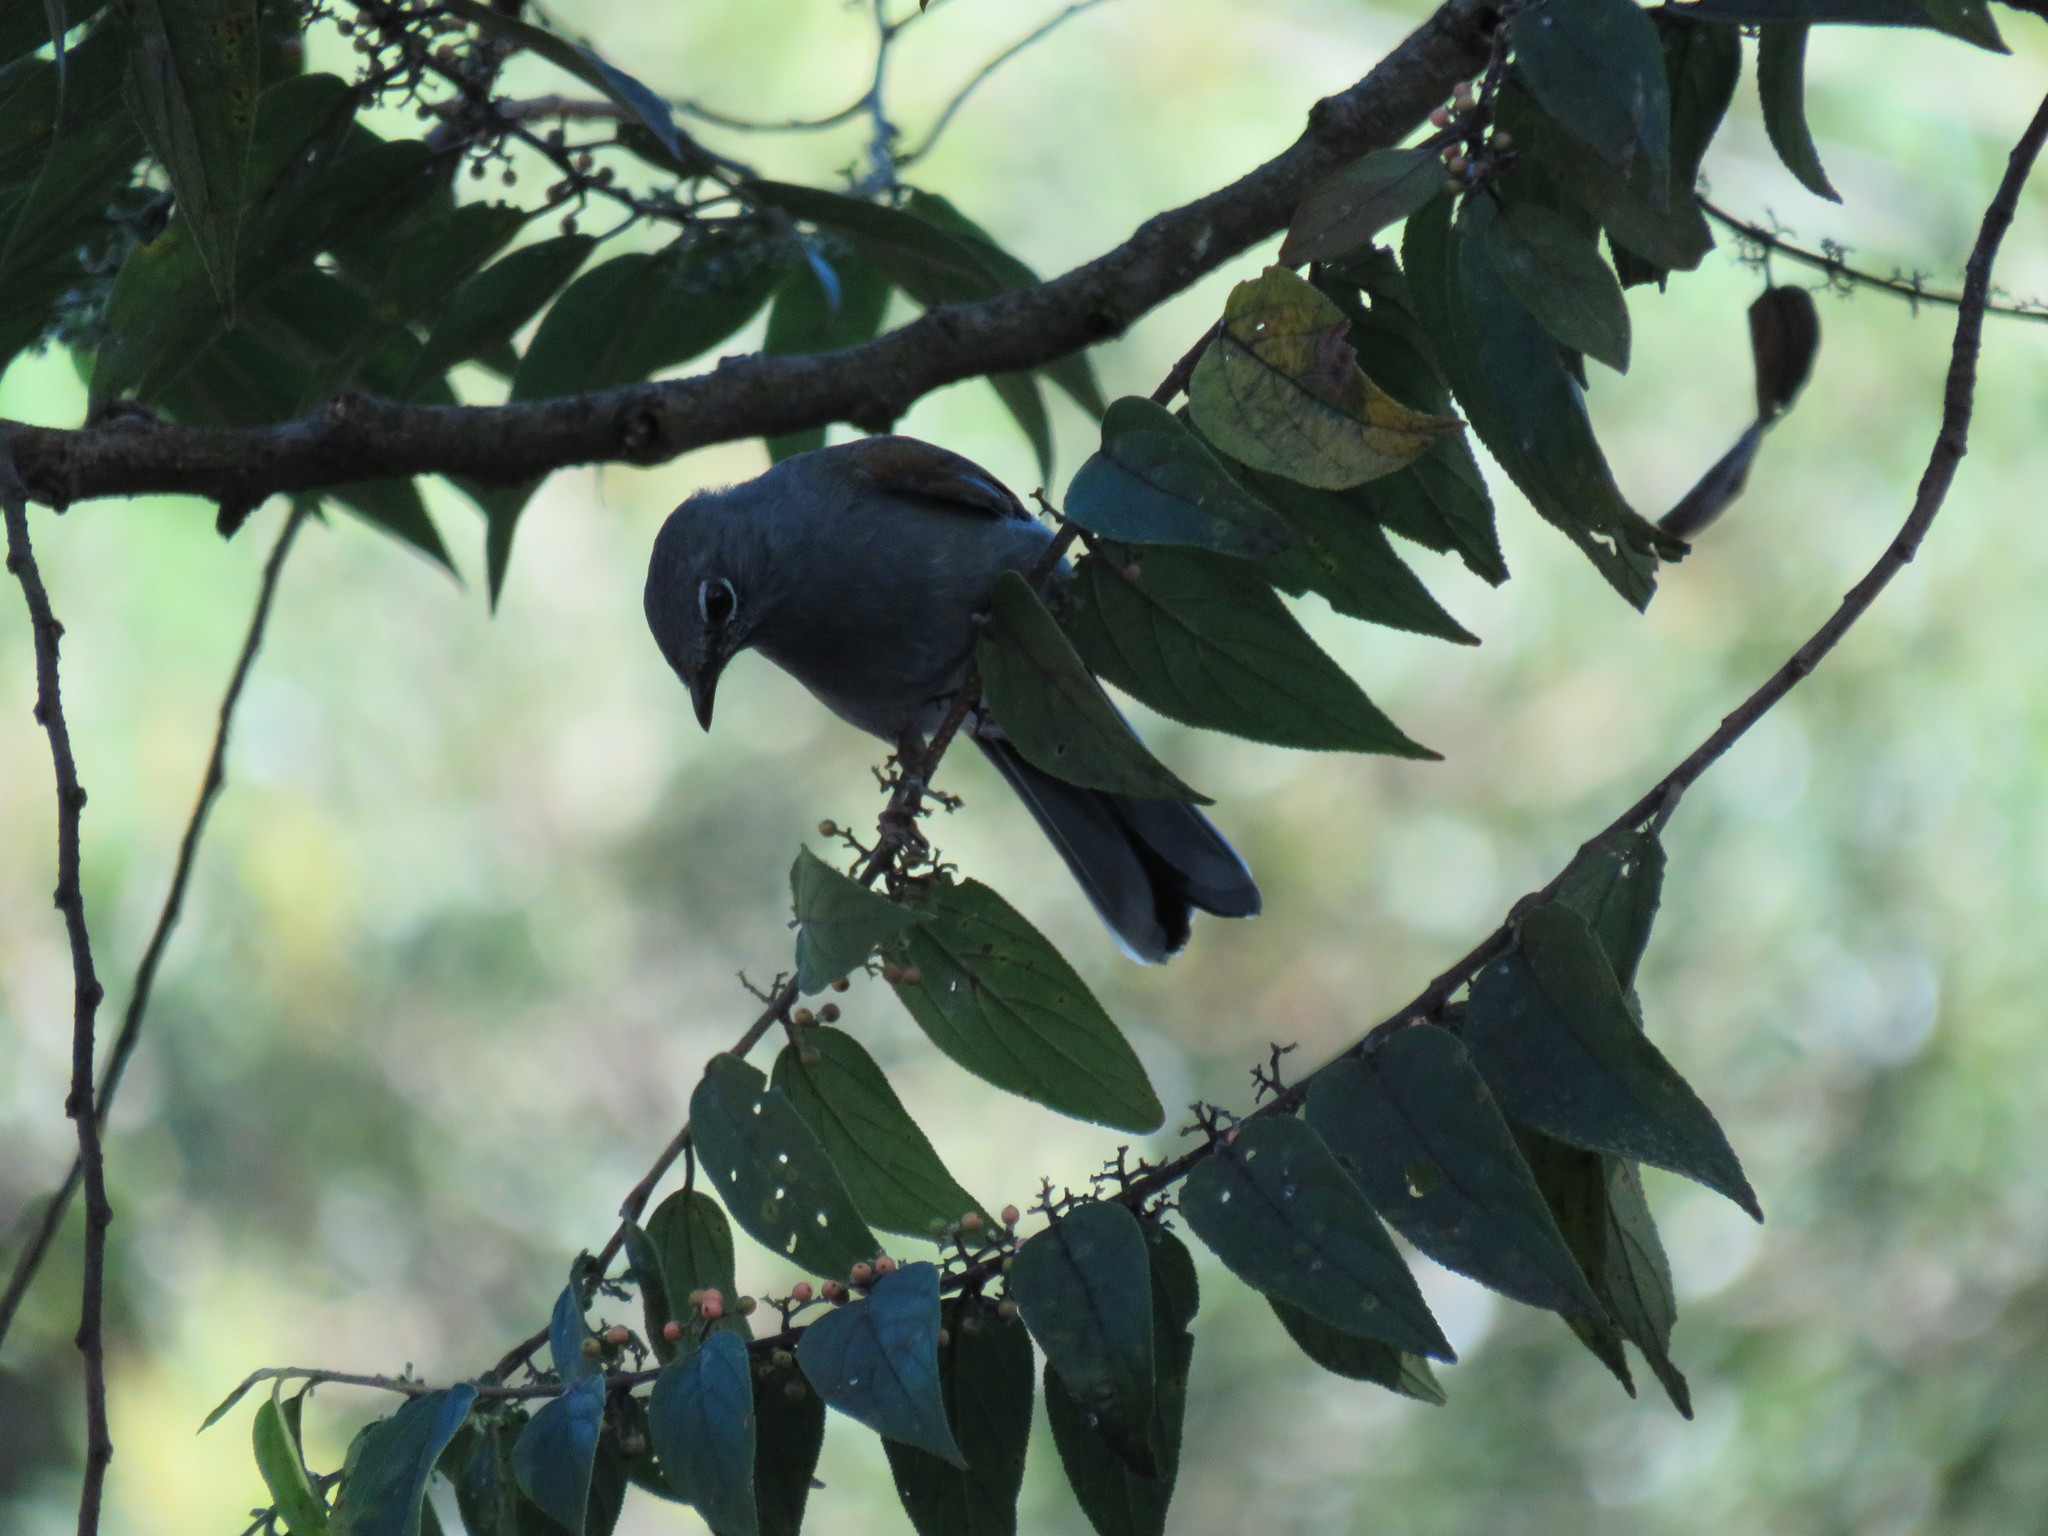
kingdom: Animalia
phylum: Chordata
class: Aves
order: Passeriformes
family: Turdidae
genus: Myadestes
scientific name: Myadestes occidentalis
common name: Brown-backed solitaire
